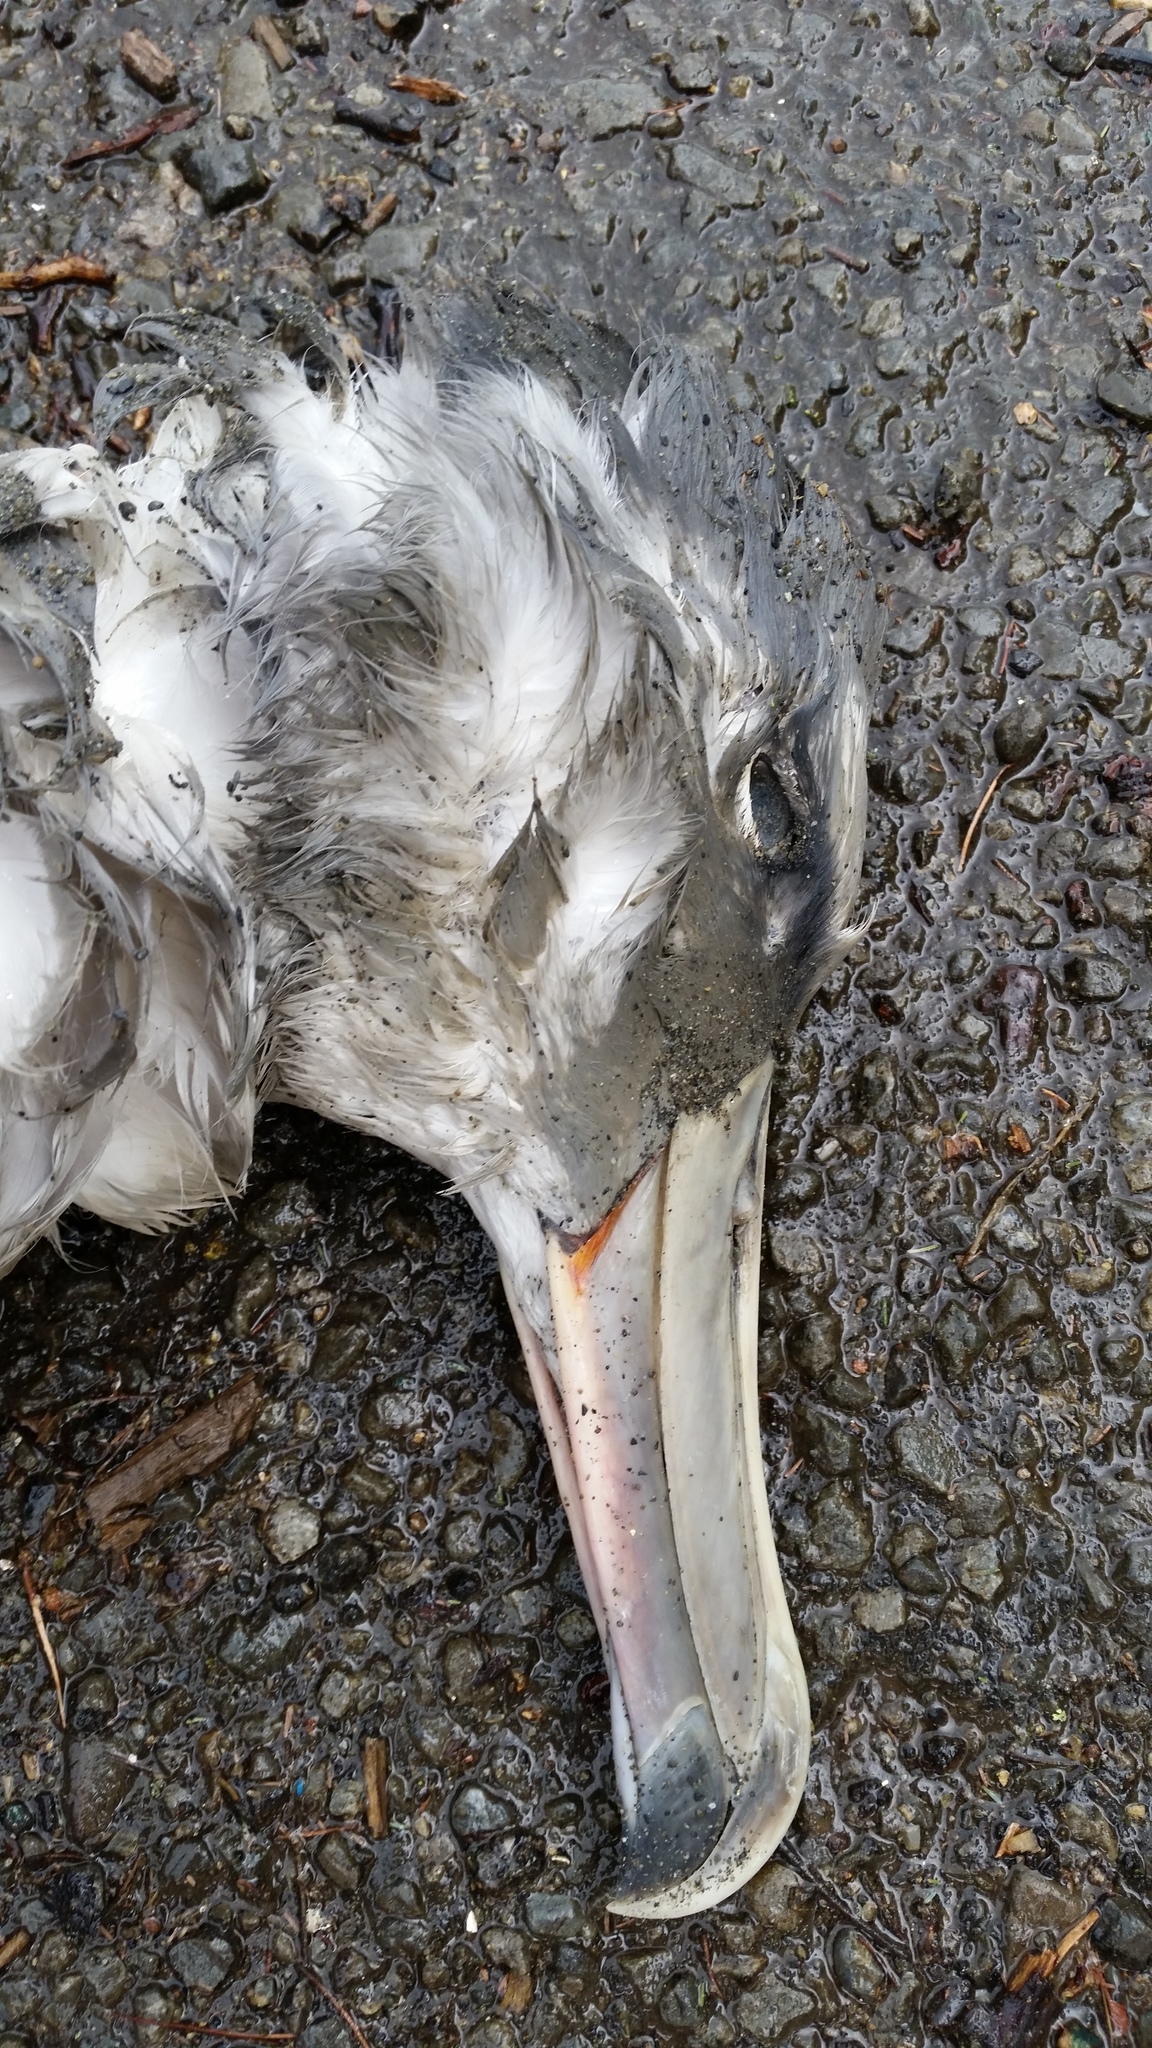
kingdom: Animalia
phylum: Chordata
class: Aves
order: Procellariiformes
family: Diomedeidae
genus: Thalassarche
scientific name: Thalassarche salvini
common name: Salvin's albatross
